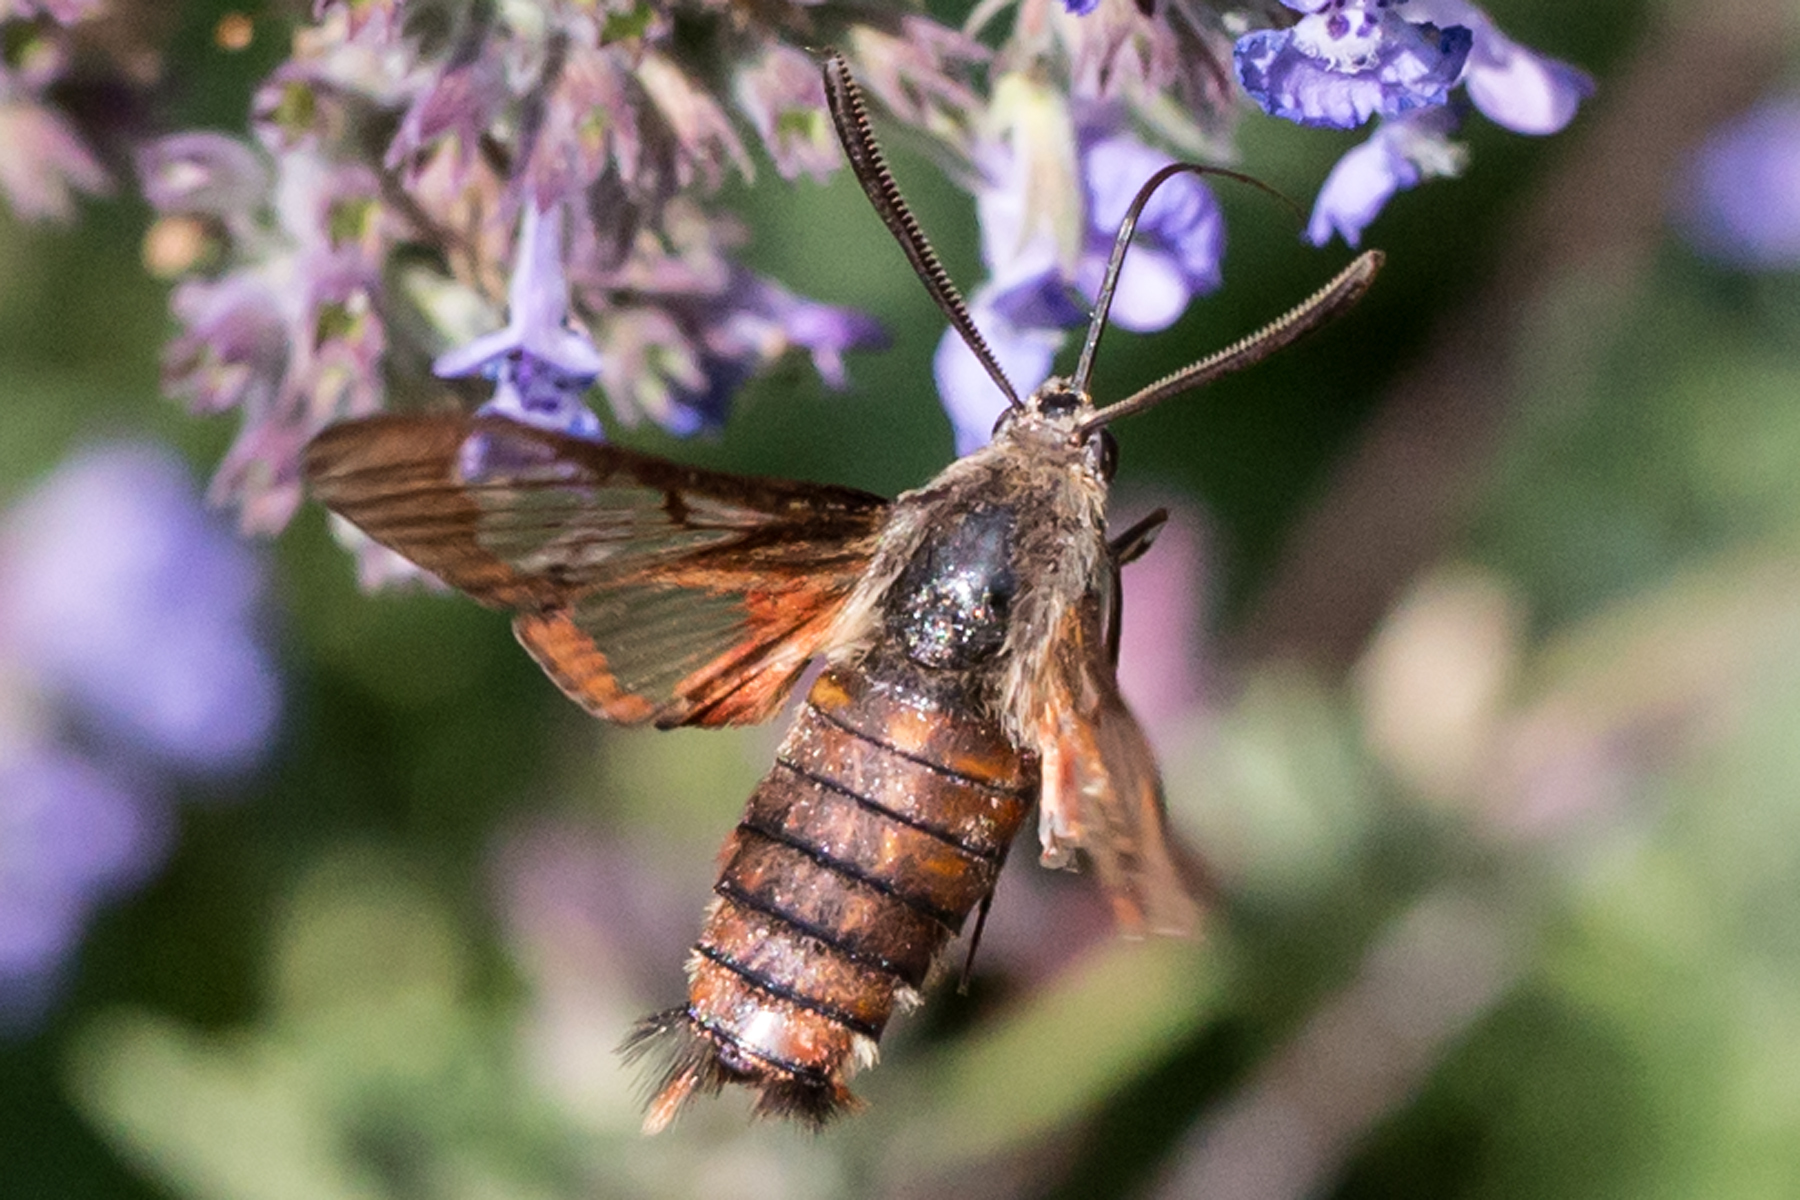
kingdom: Animalia
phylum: Arthropoda
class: Insecta
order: Lepidoptera
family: Sphingidae
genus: Hemaris
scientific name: Hemaris thysbe
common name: Common clear-wing
